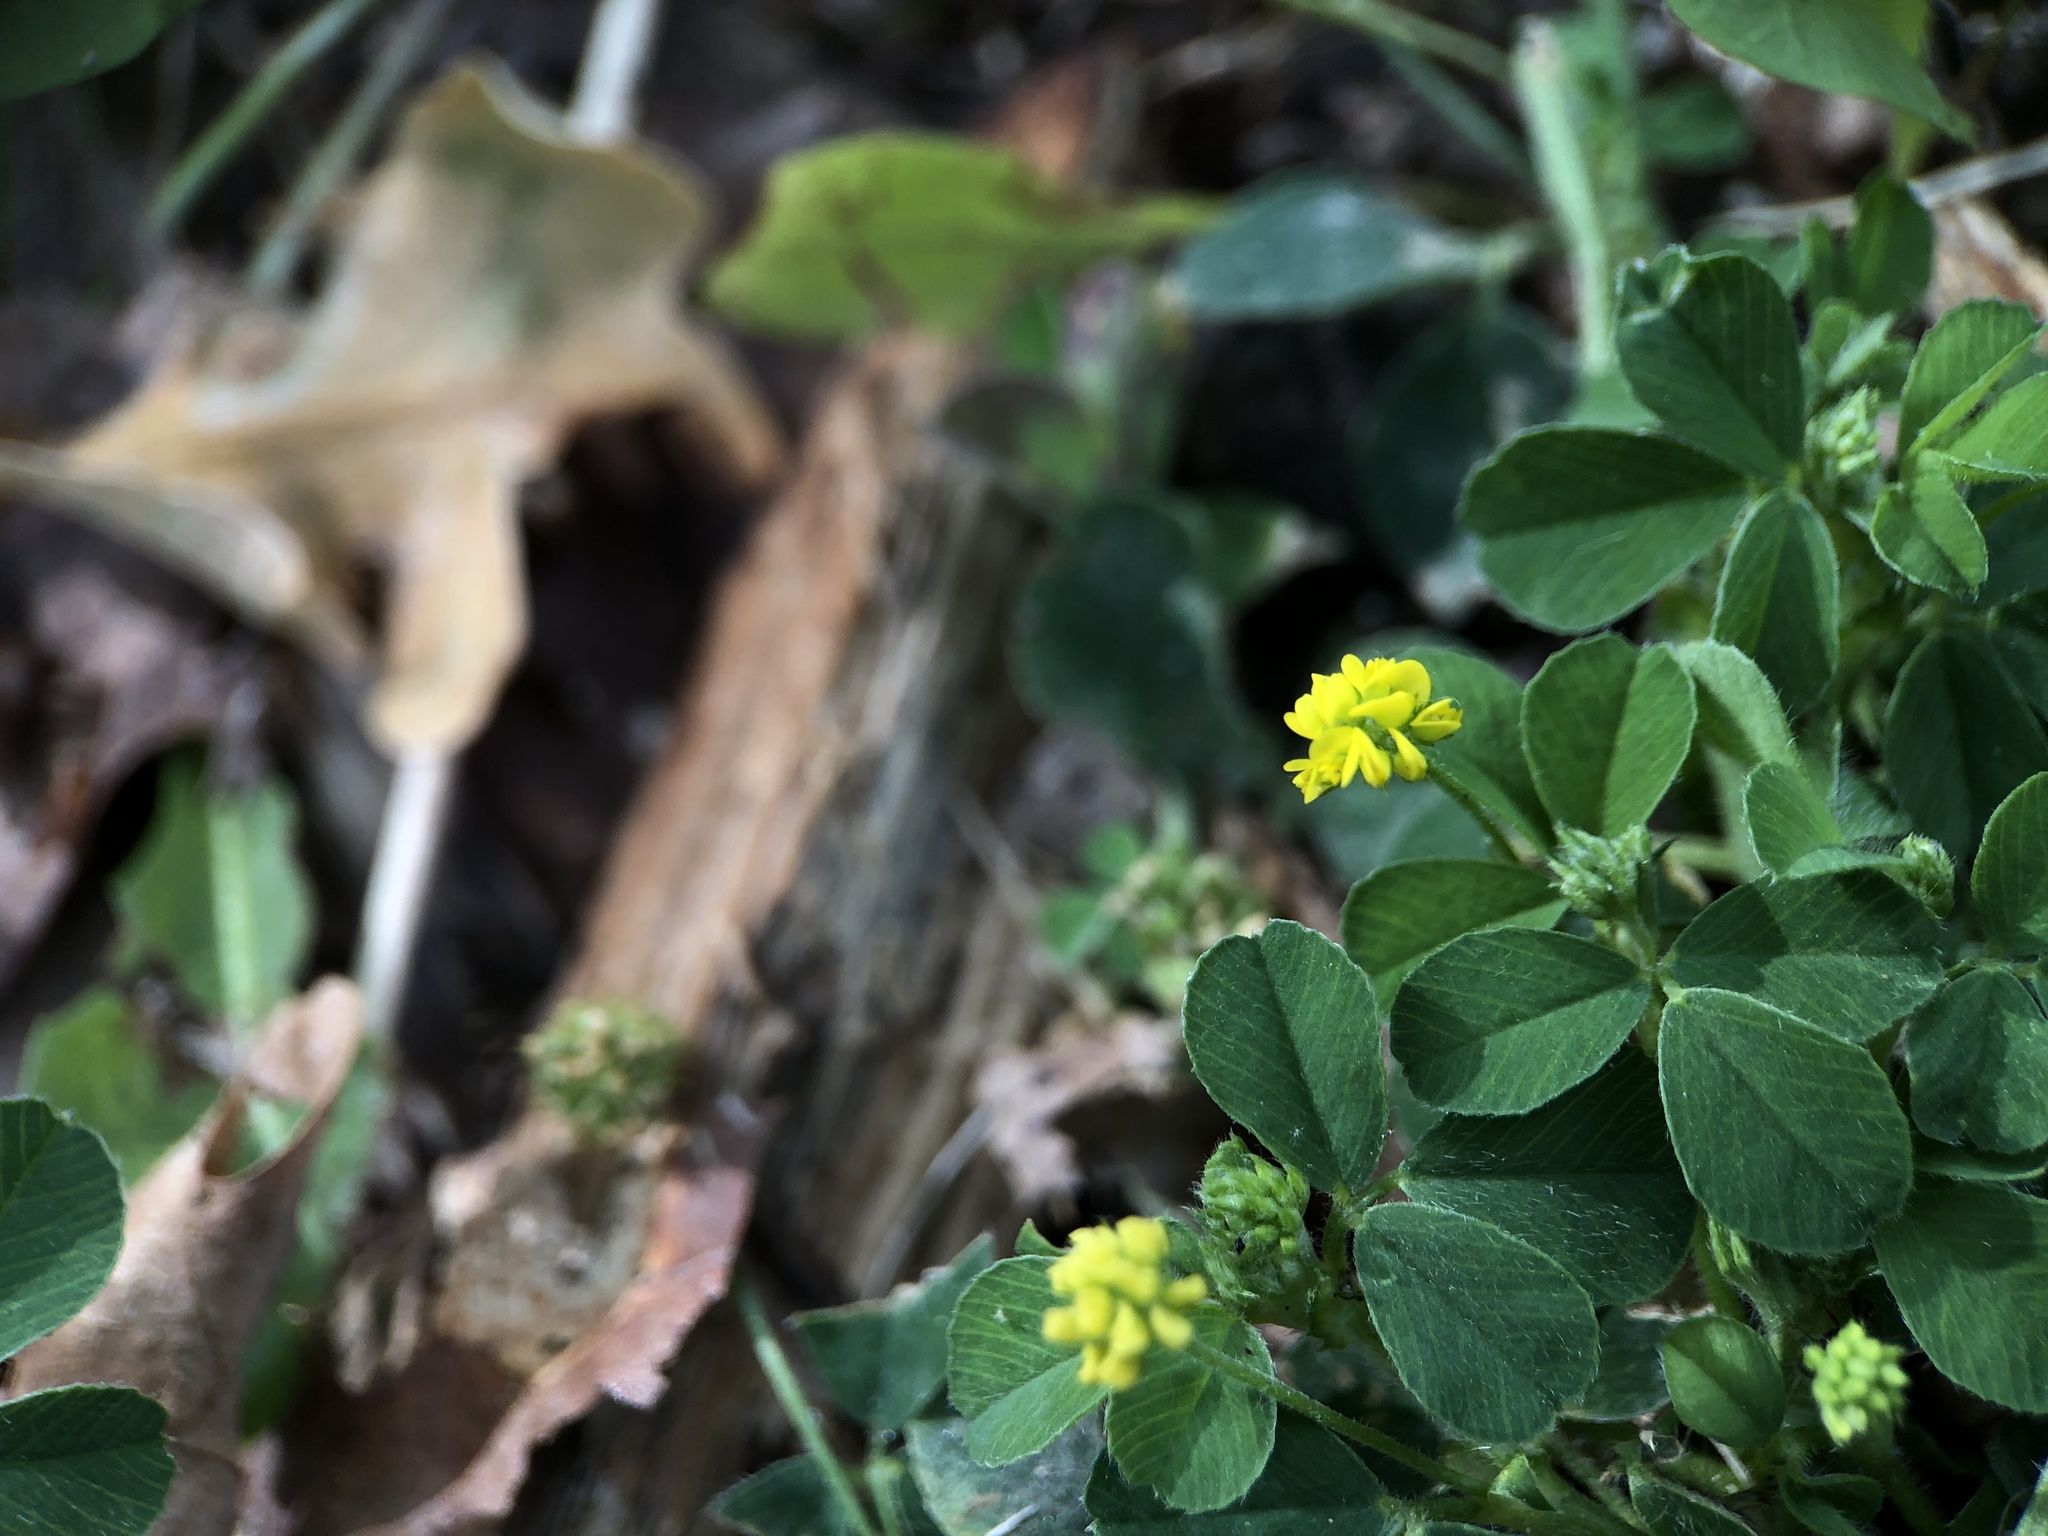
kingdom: Plantae
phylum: Tracheophyta
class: Magnoliopsida
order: Fabales
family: Fabaceae
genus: Medicago
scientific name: Medicago lupulina
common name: Black medick
